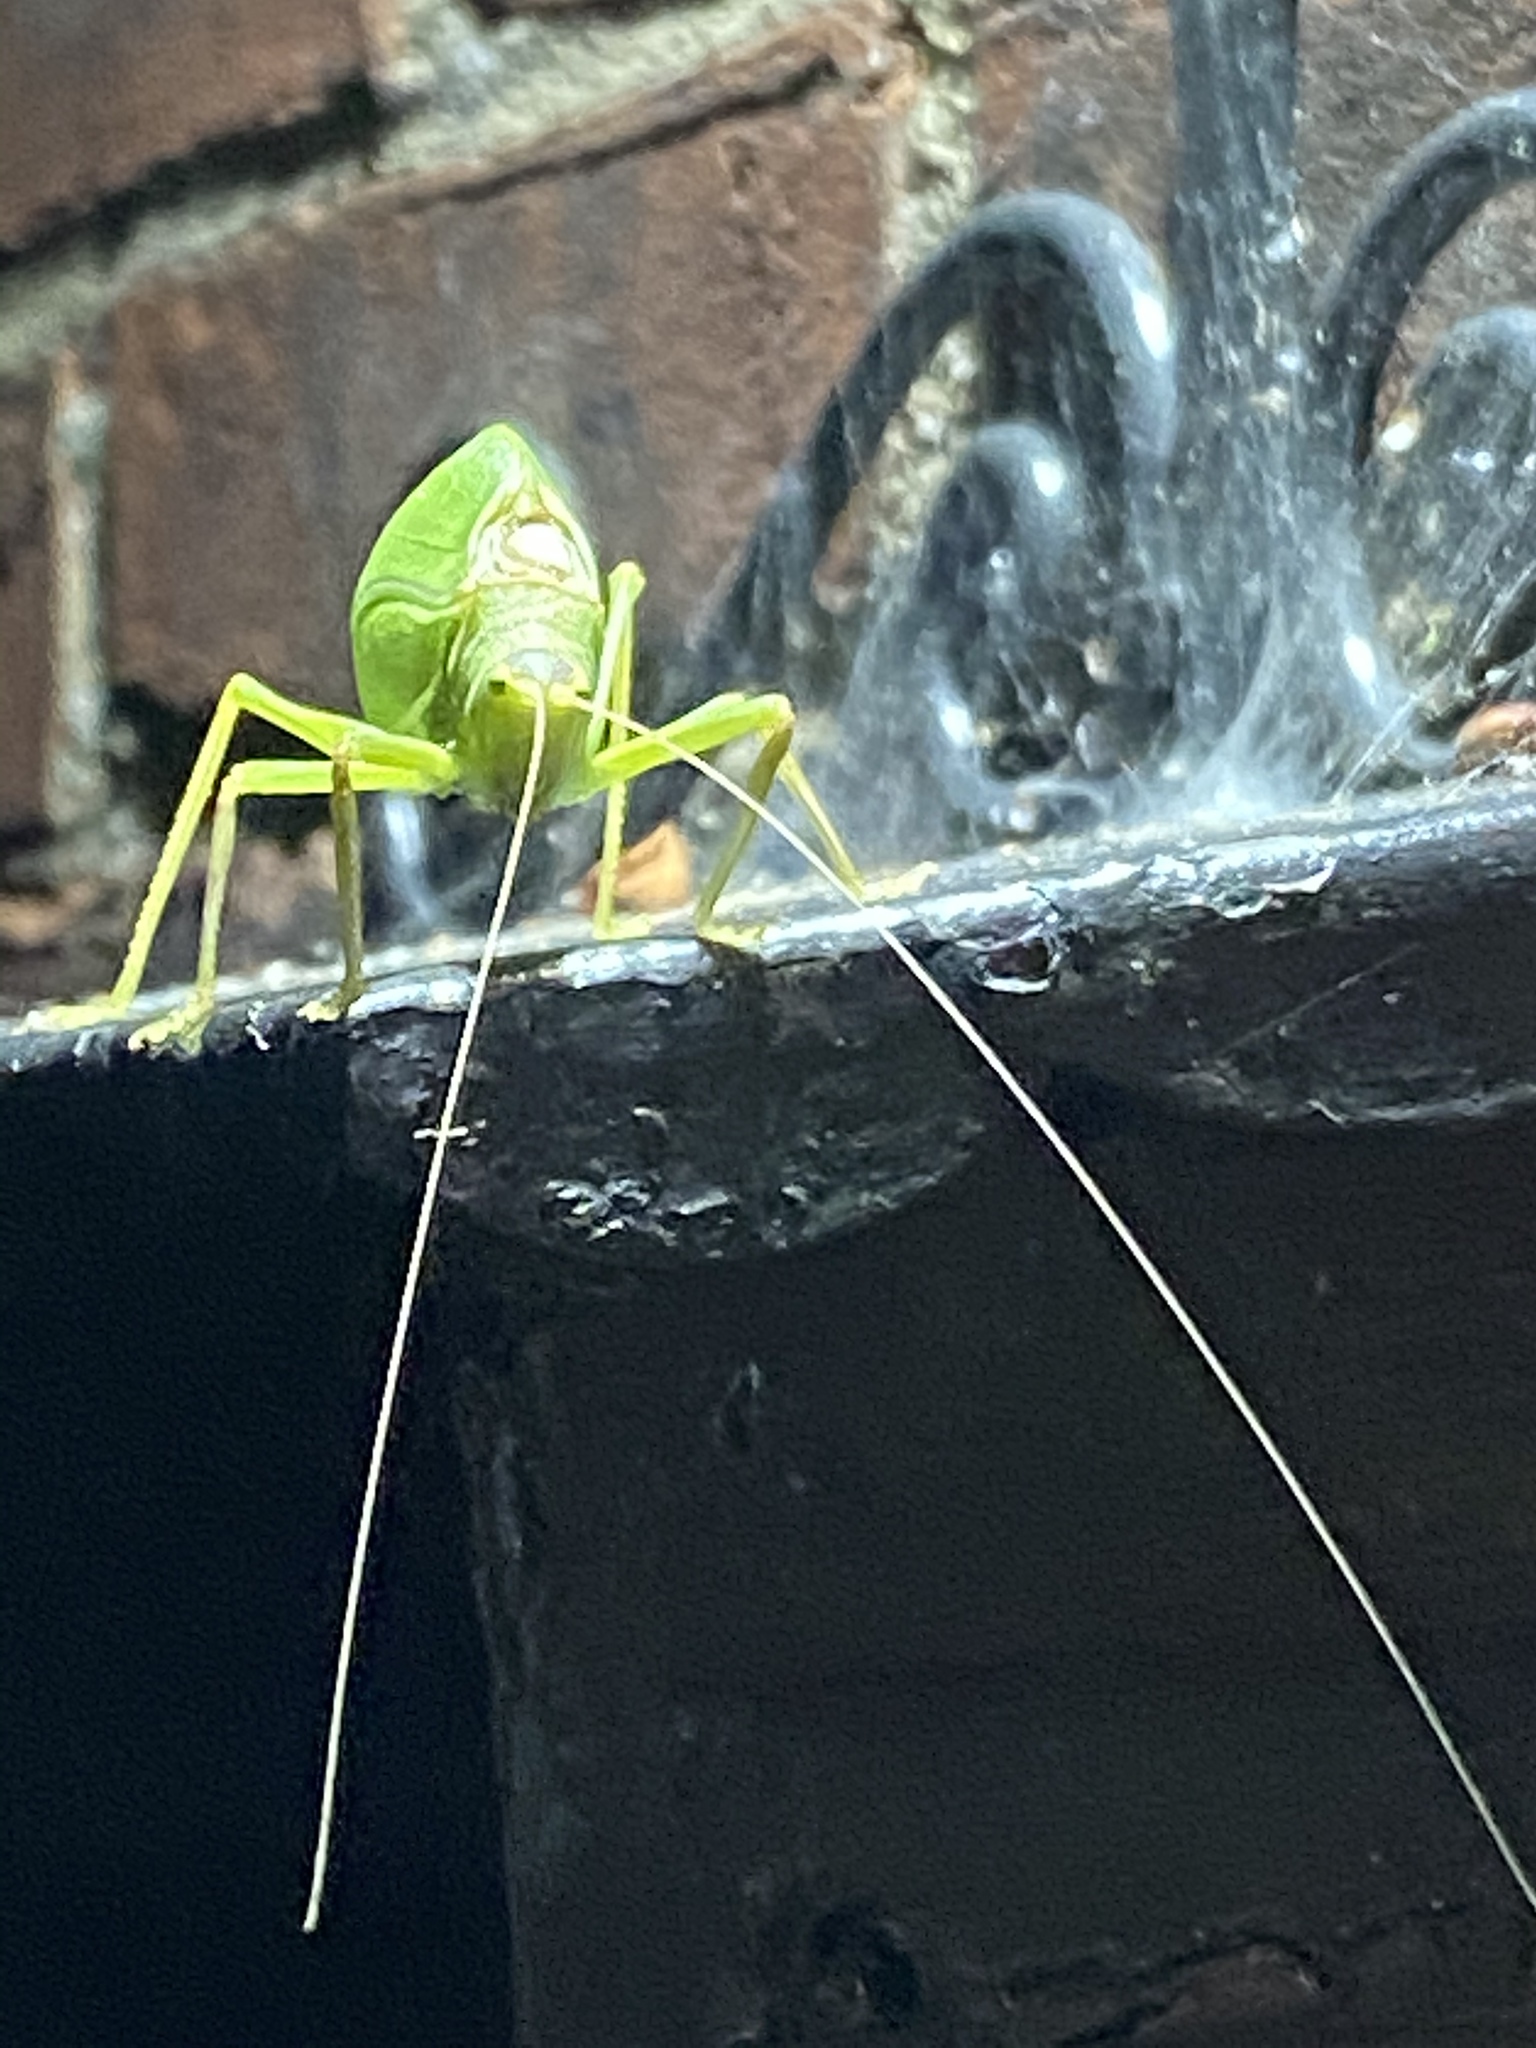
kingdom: Animalia
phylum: Arthropoda
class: Insecta
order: Orthoptera
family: Tettigoniidae
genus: Pterophylla
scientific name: Pterophylla camellifolia
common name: Common true katydid
